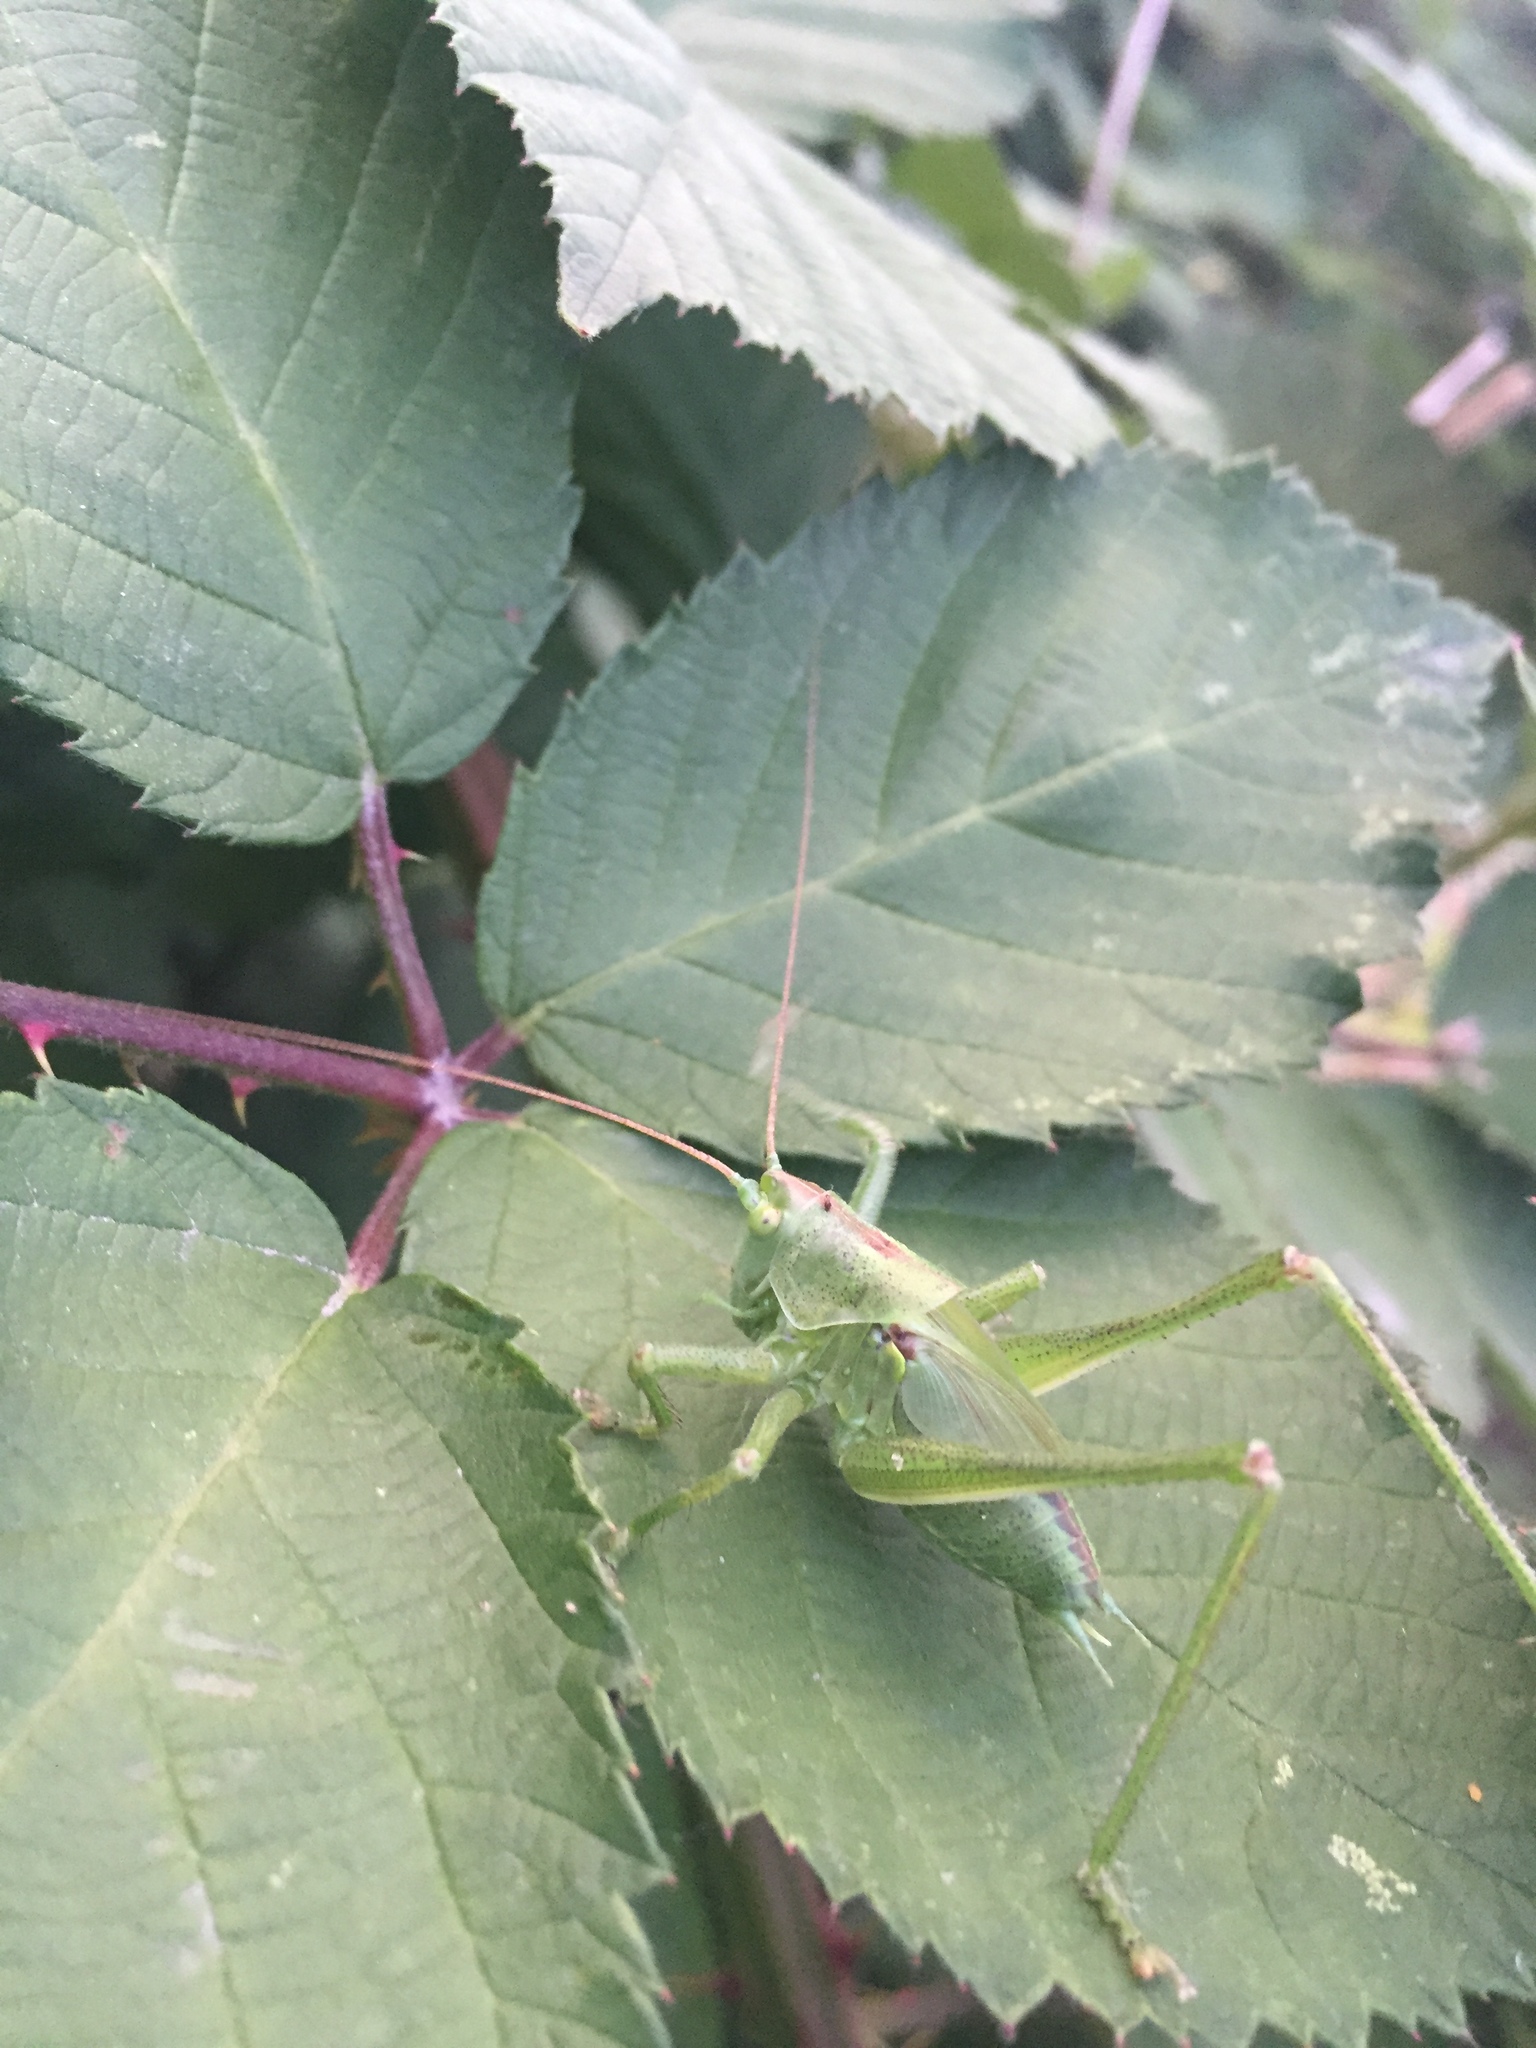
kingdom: Animalia
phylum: Arthropoda
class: Insecta
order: Orthoptera
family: Tettigoniidae
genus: Tettigonia
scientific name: Tettigonia viridissima
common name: Great green bush-cricket
